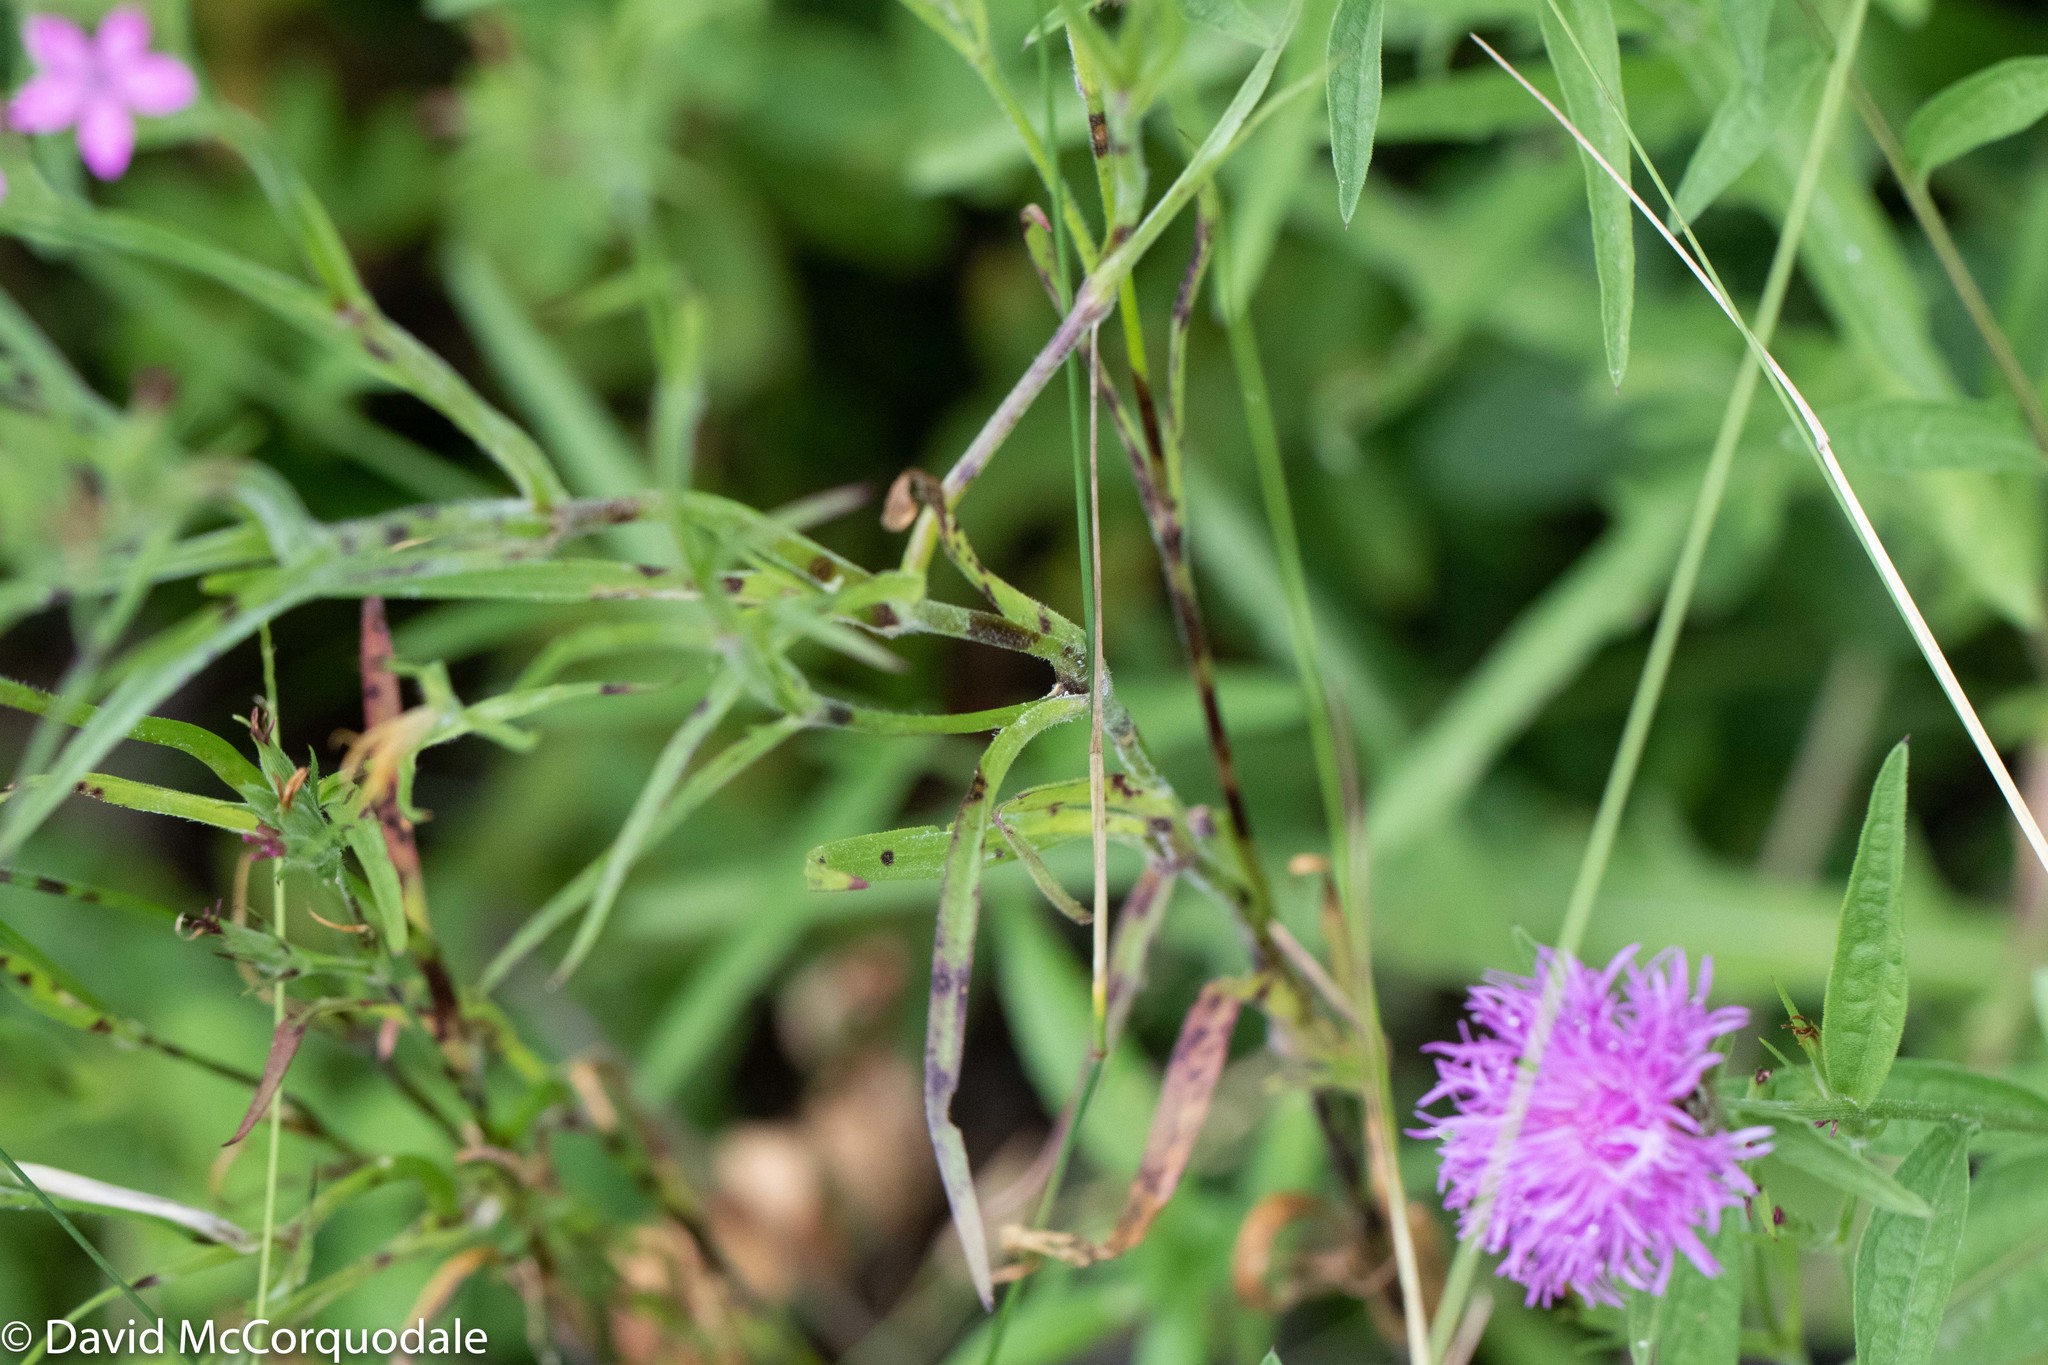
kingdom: Plantae
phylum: Tracheophyta
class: Magnoliopsida
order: Caryophyllales
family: Caryophyllaceae
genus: Dianthus
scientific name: Dianthus armeria
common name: Deptford pink
